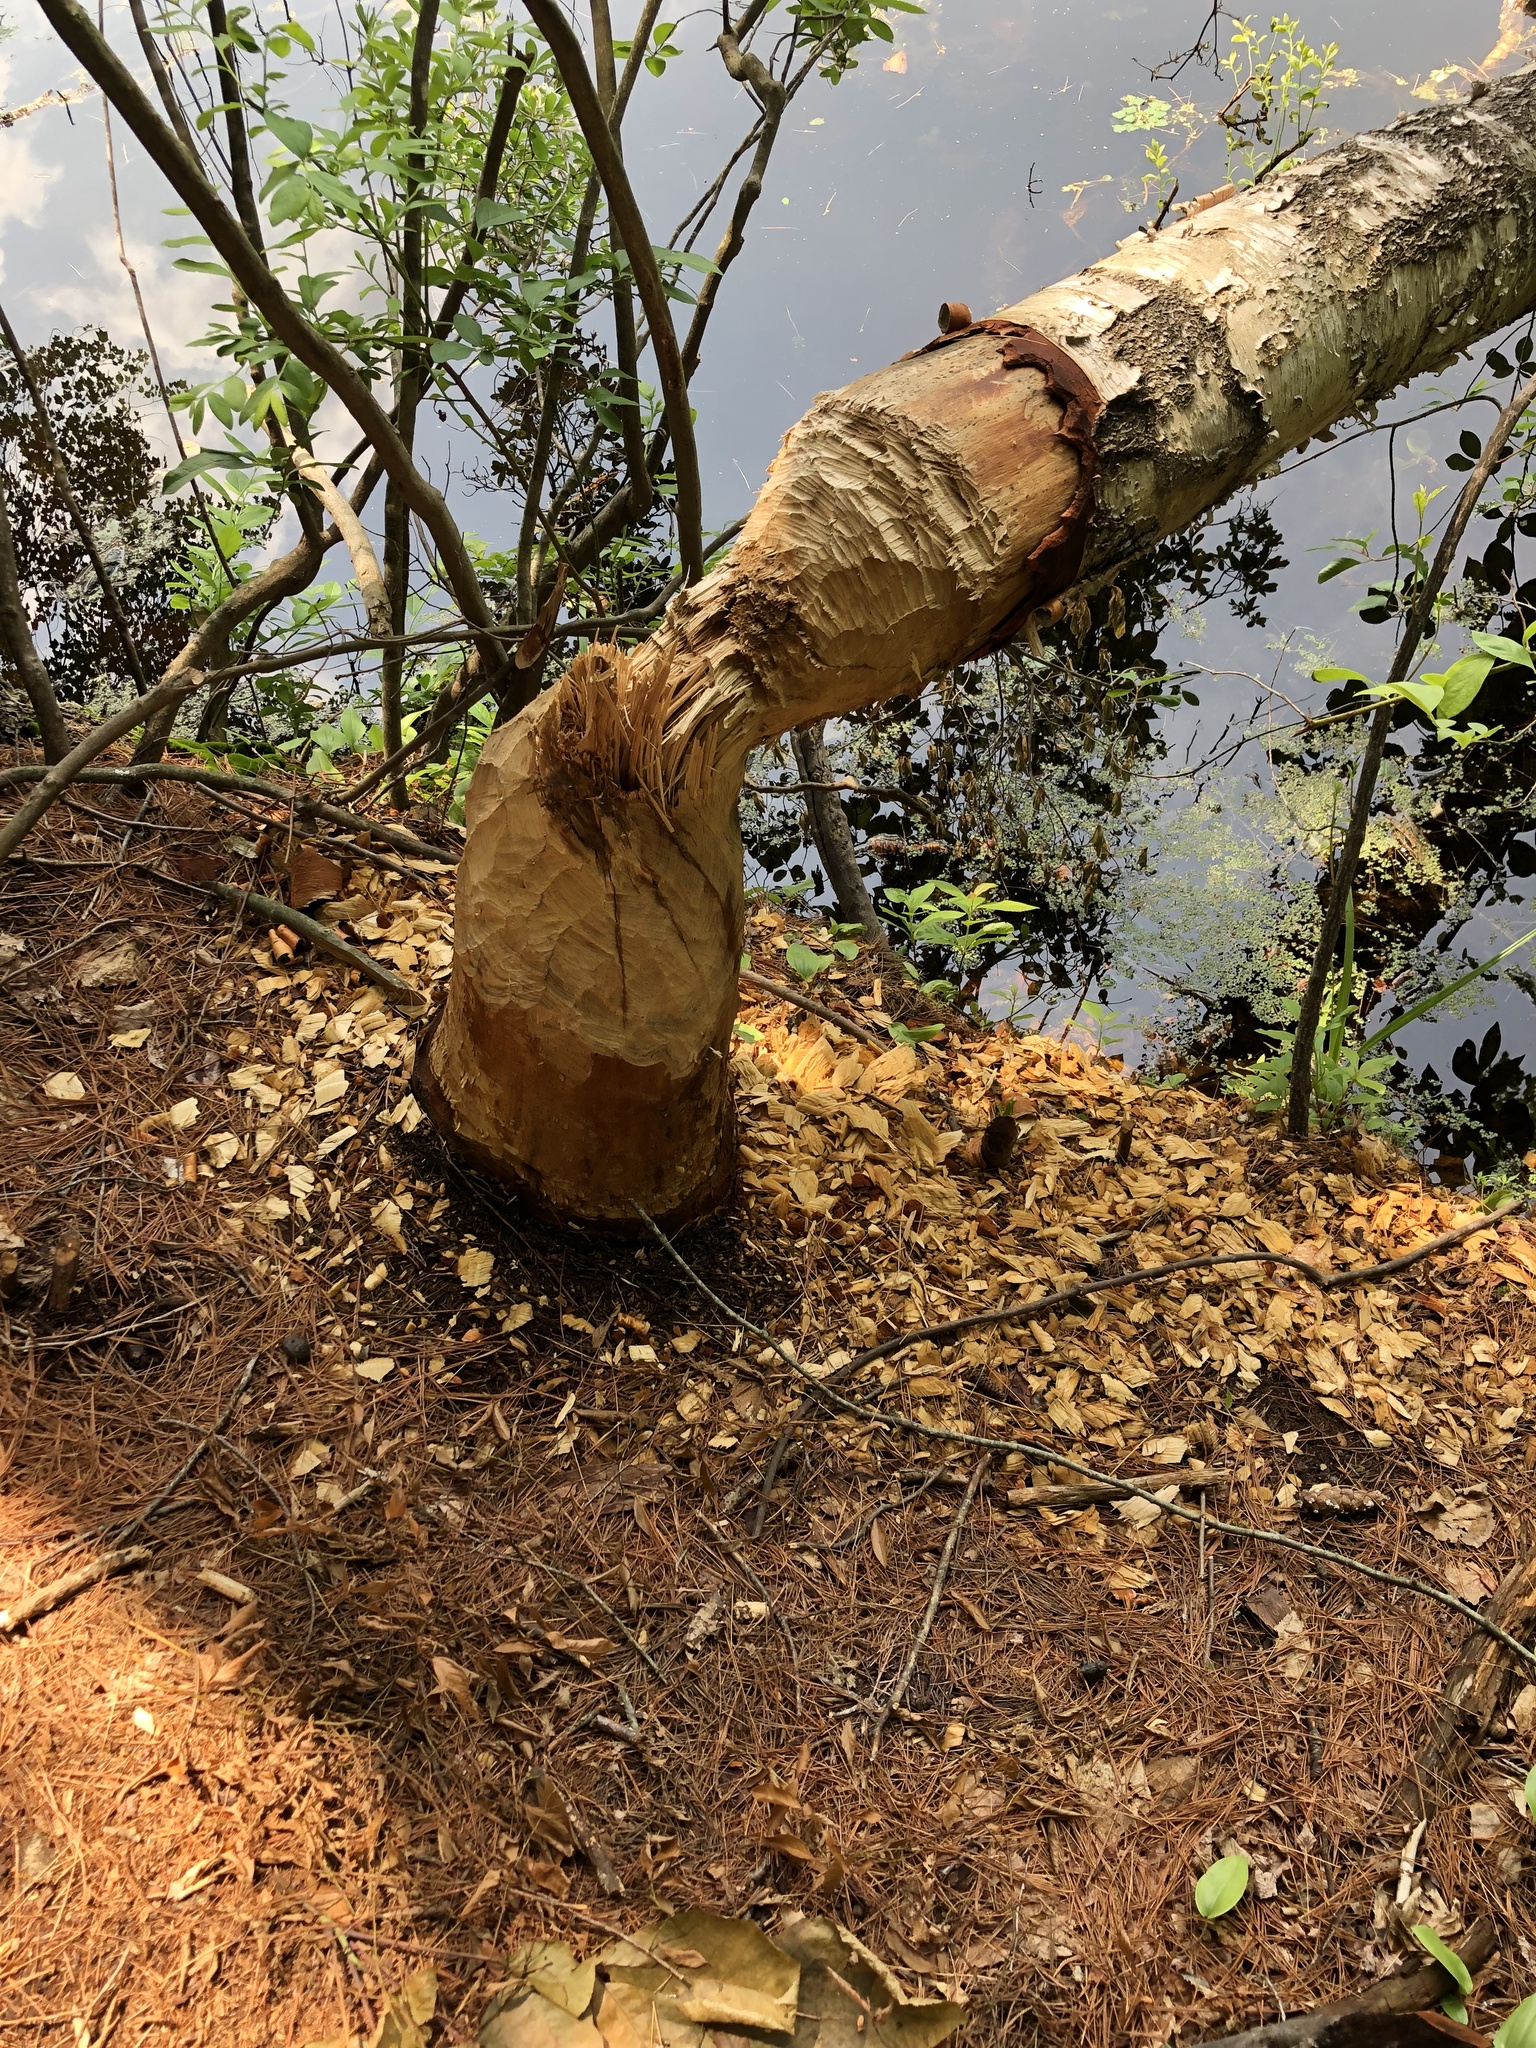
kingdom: Animalia
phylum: Chordata
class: Mammalia
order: Rodentia
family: Castoridae
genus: Castor
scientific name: Castor canadensis
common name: American beaver
